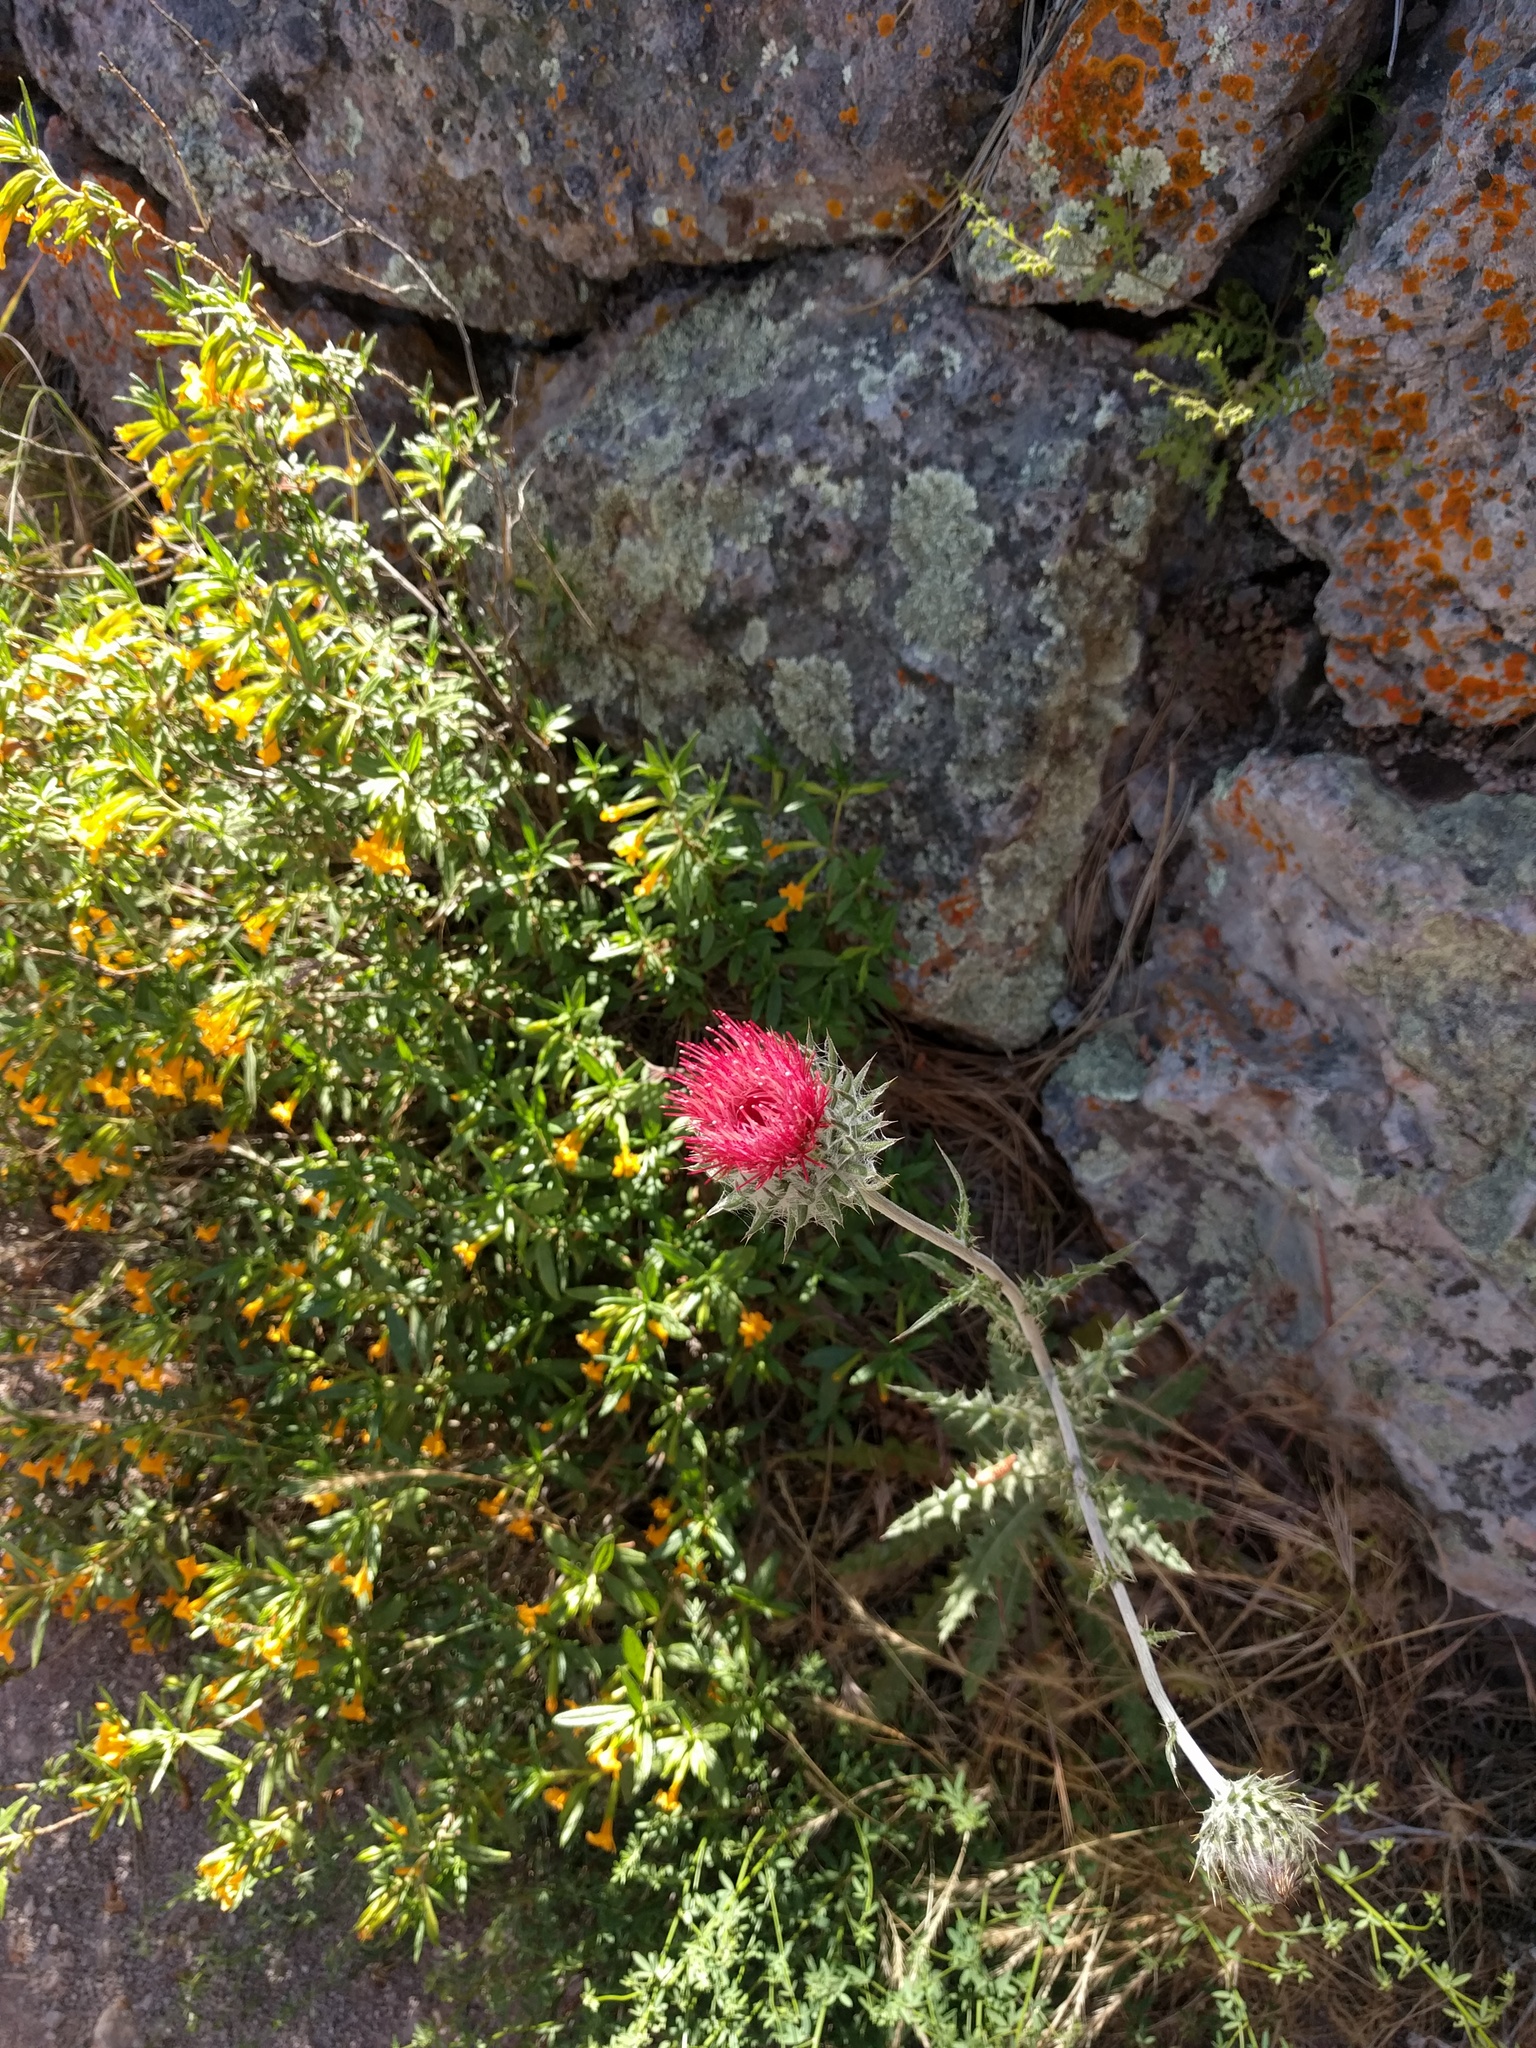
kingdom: Plantae
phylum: Tracheophyta
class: Magnoliopsida
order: Asterales
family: Asteraceae
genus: Cirsium
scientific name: Cirsium occidentale
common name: Western thistle
